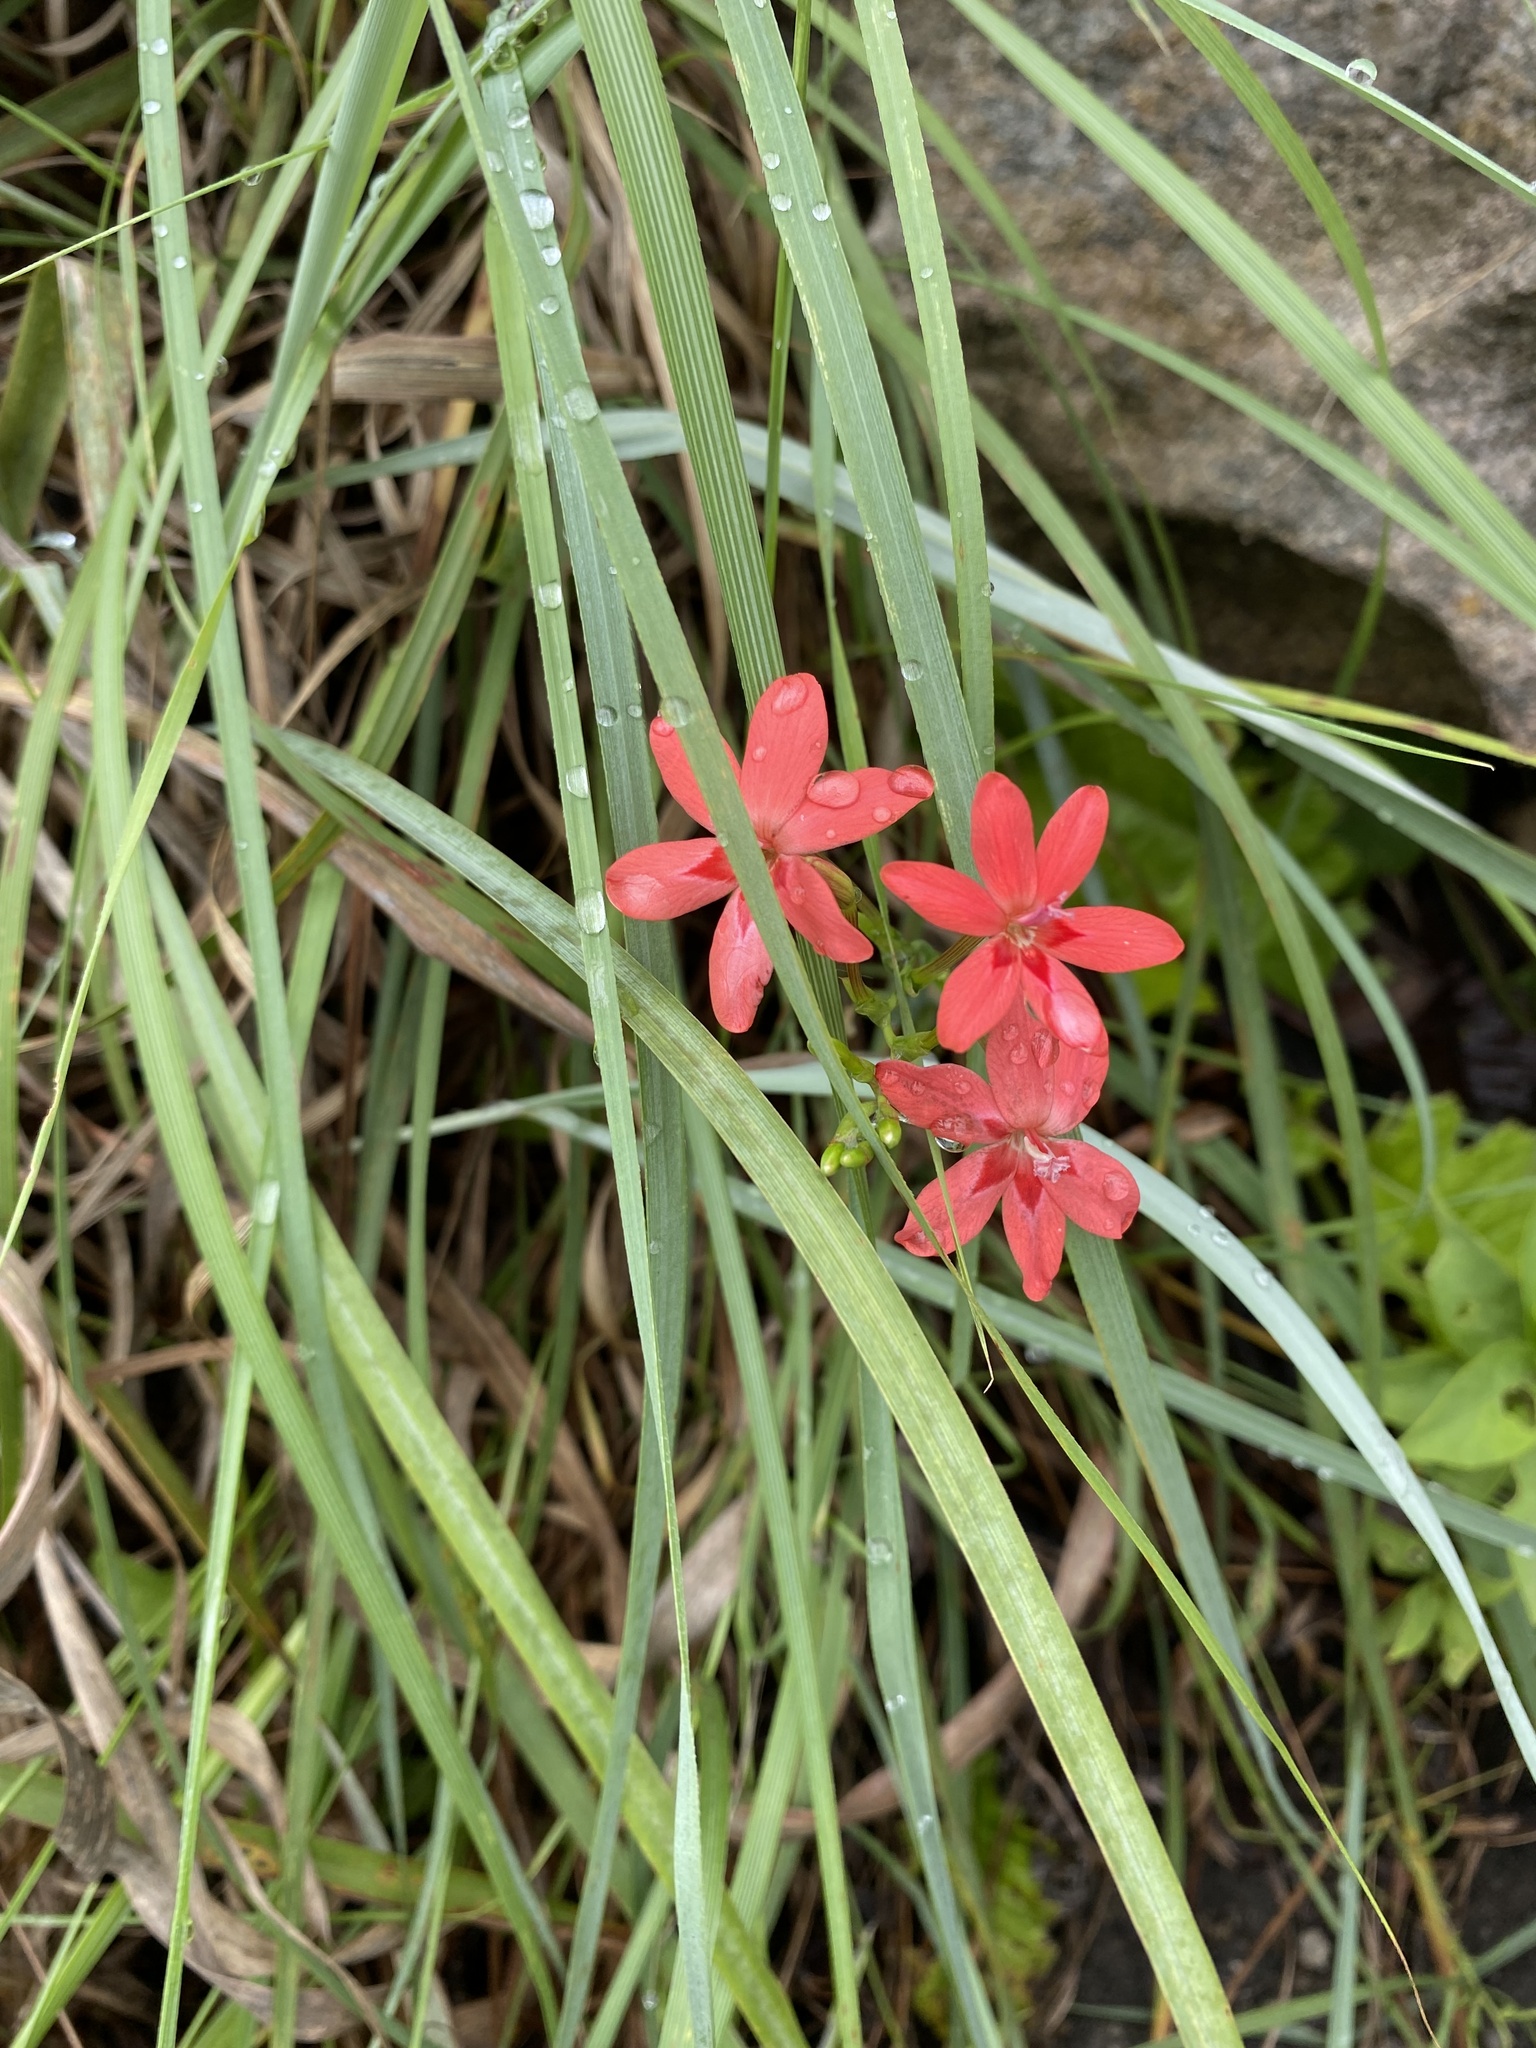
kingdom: Plantae
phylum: Tracheophyta
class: Liliopsida
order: Asparagales
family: Iridaceae
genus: Freesia
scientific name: Freesia laxa
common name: False freesia
